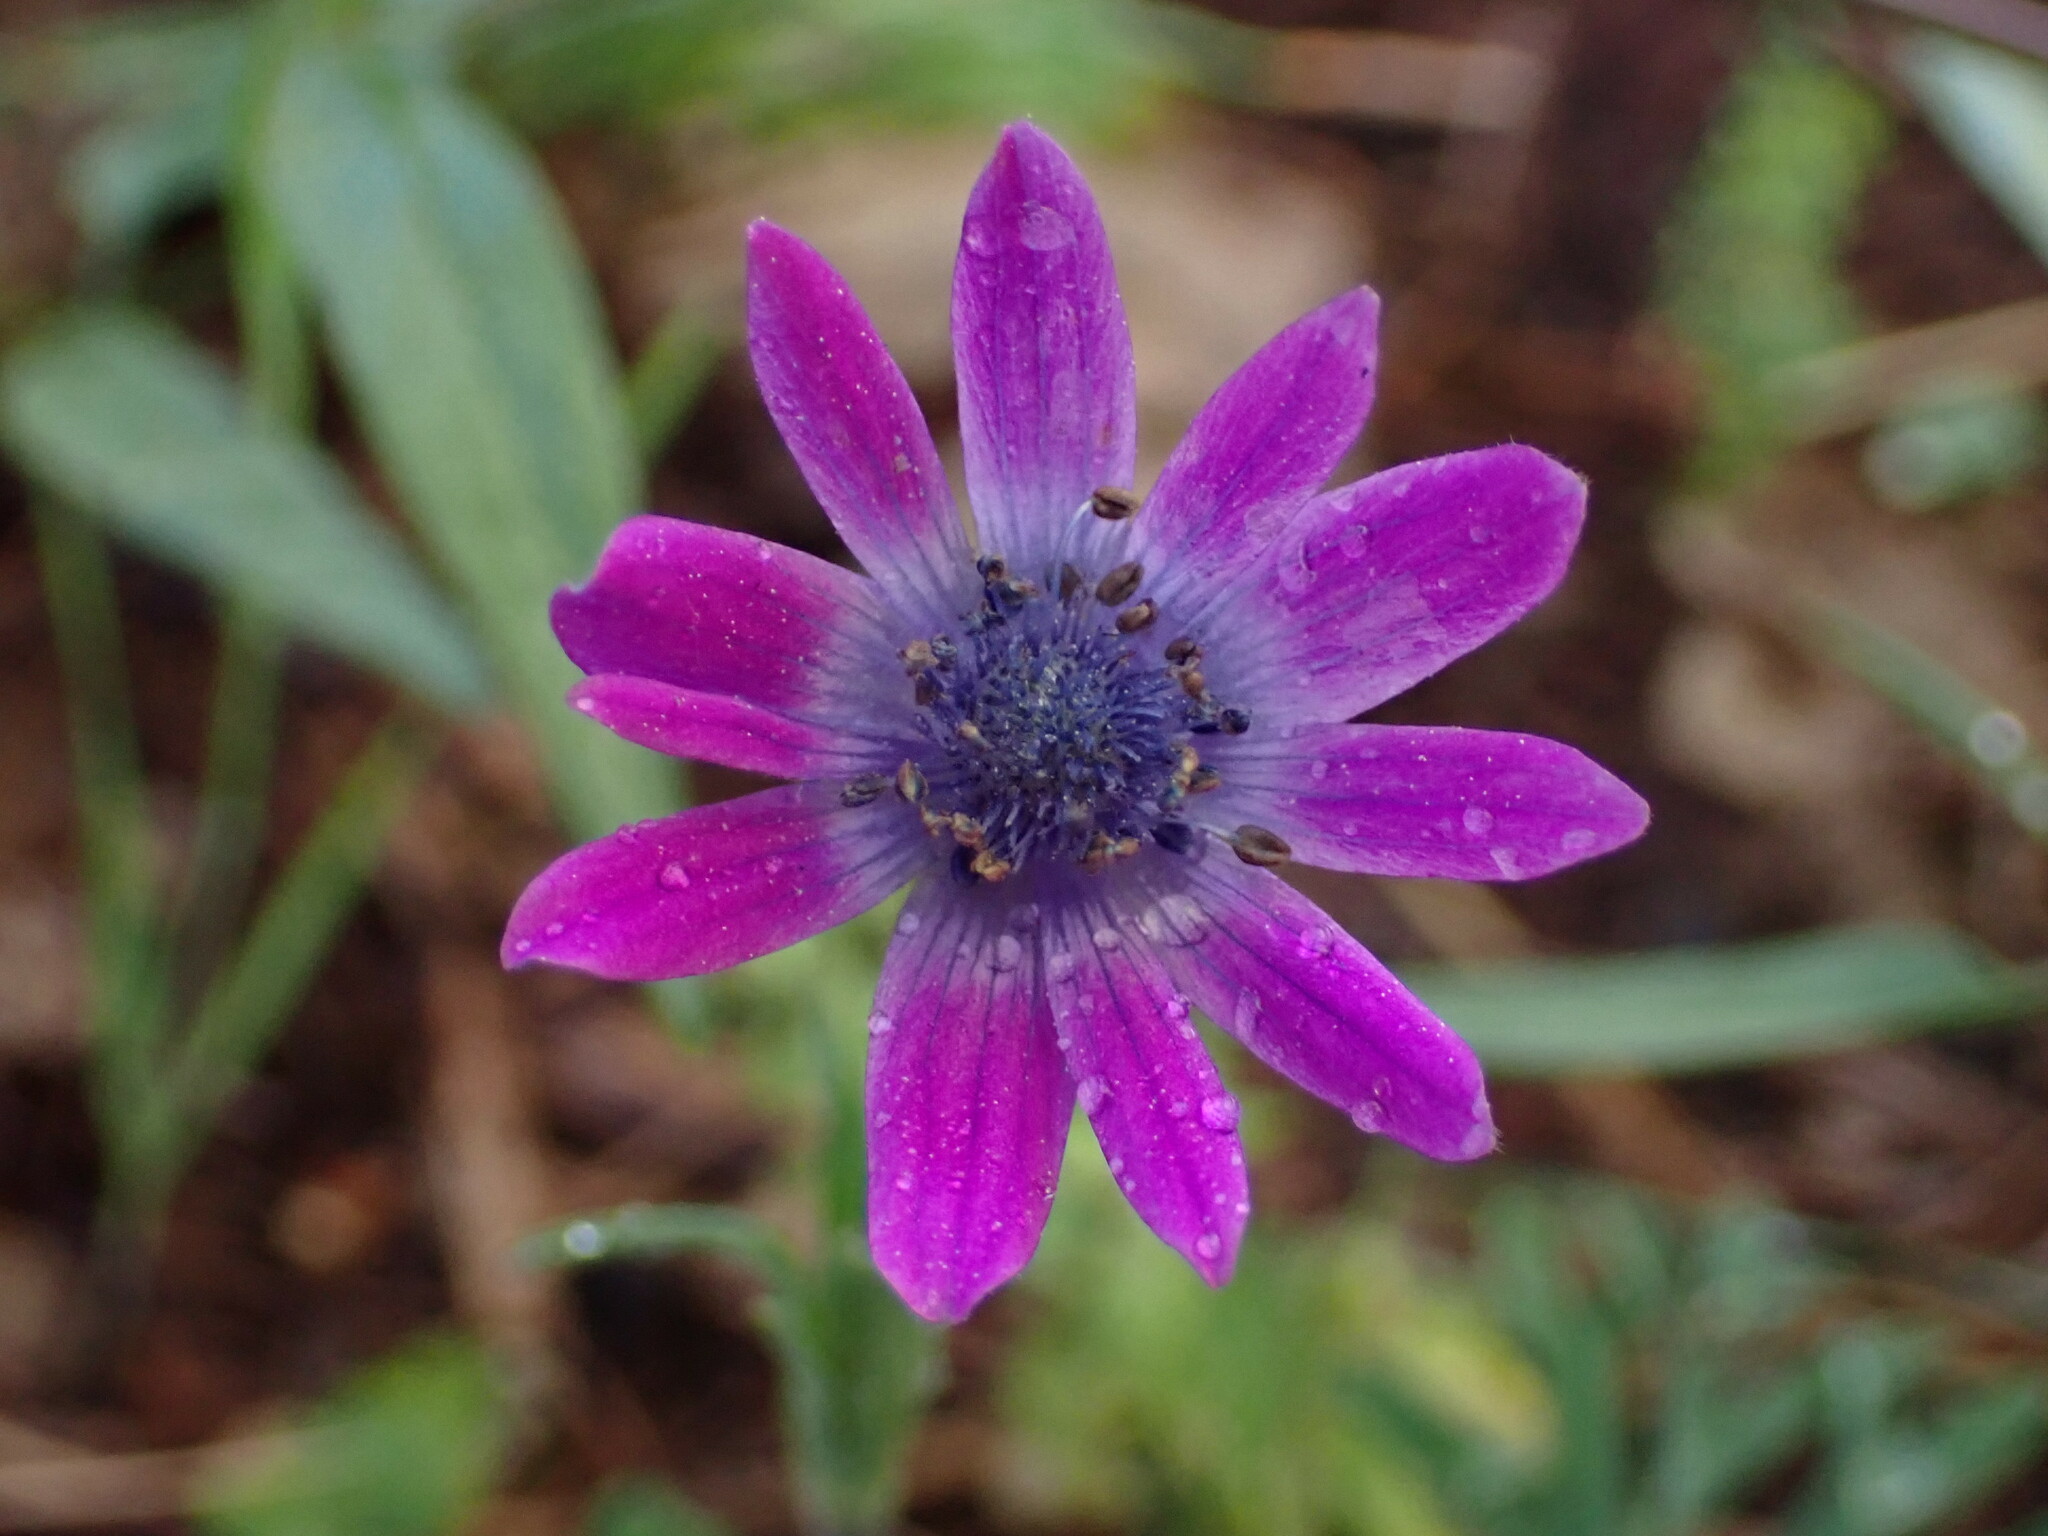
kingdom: Plantae
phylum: Tracheophyta
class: Magnoliopsida
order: Ranunculales
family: Ranunculaceae
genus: Anemone
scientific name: Anemone hortensis
